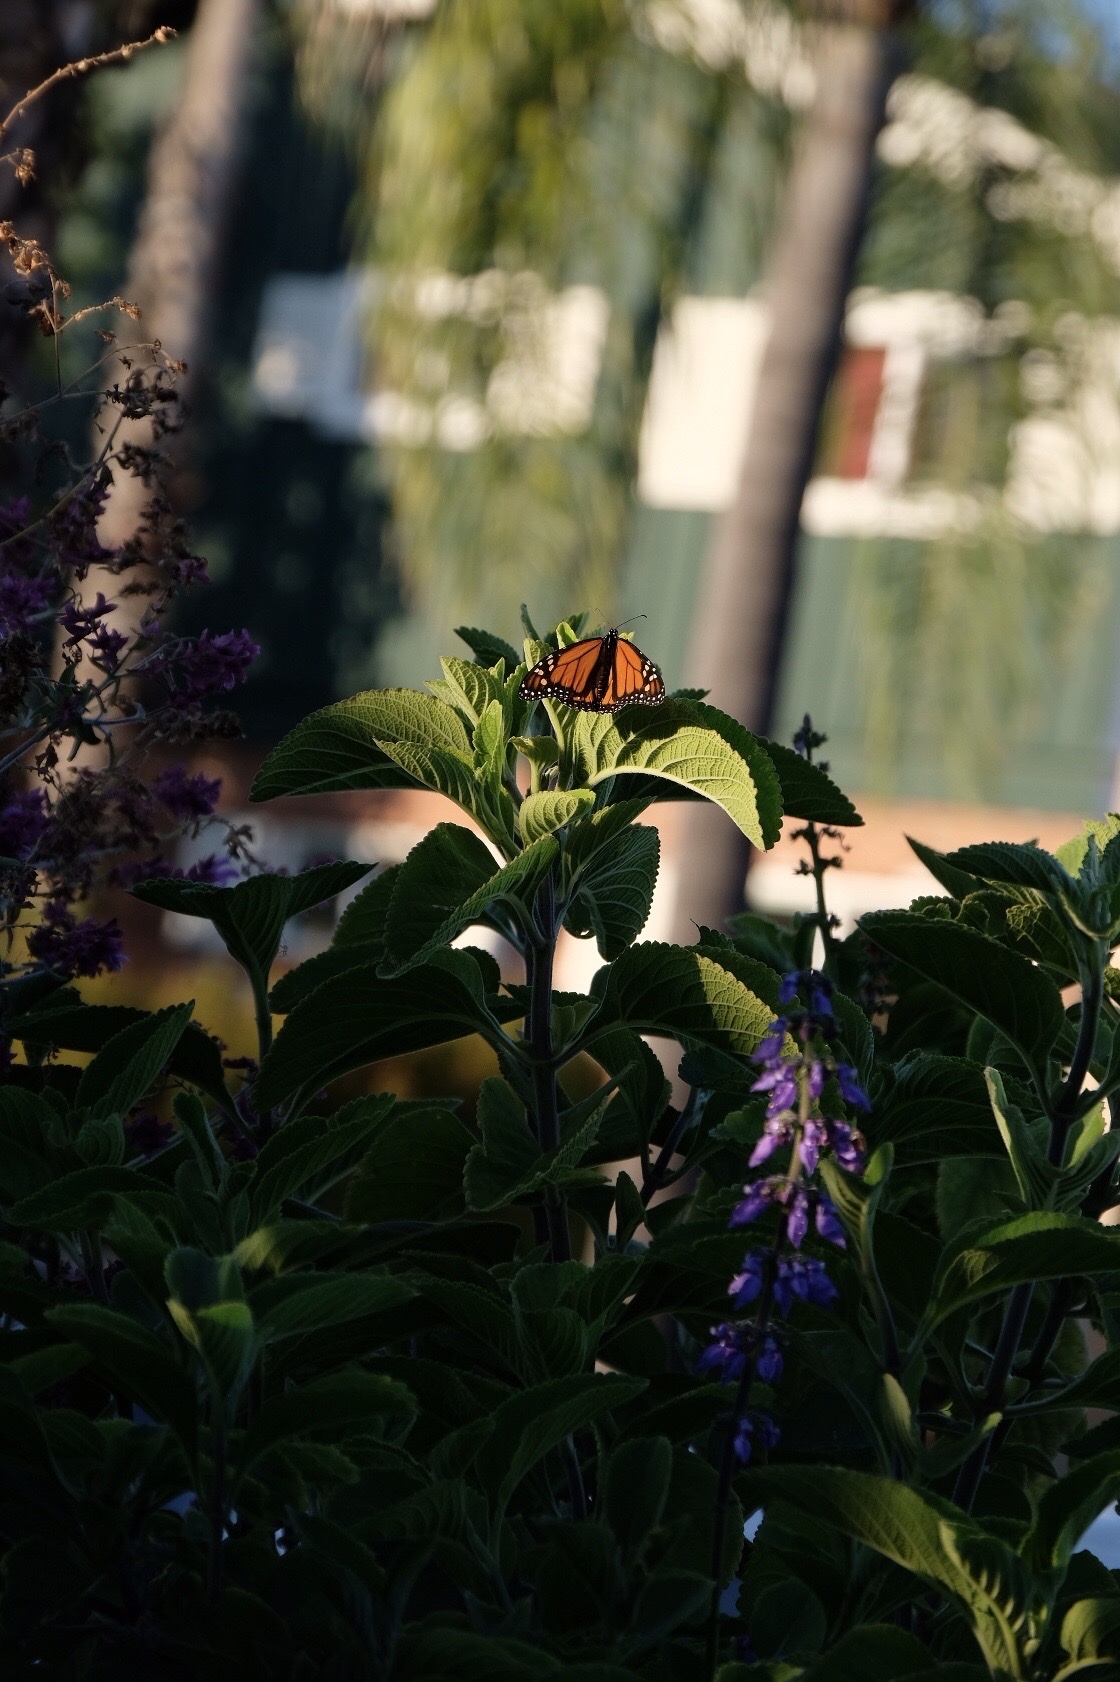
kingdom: Animalia
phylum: Arthropoda
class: Insecta
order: Lepidoptera
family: Nymphalidae
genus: Danaus
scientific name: Danaus plexippus
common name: Monarch
